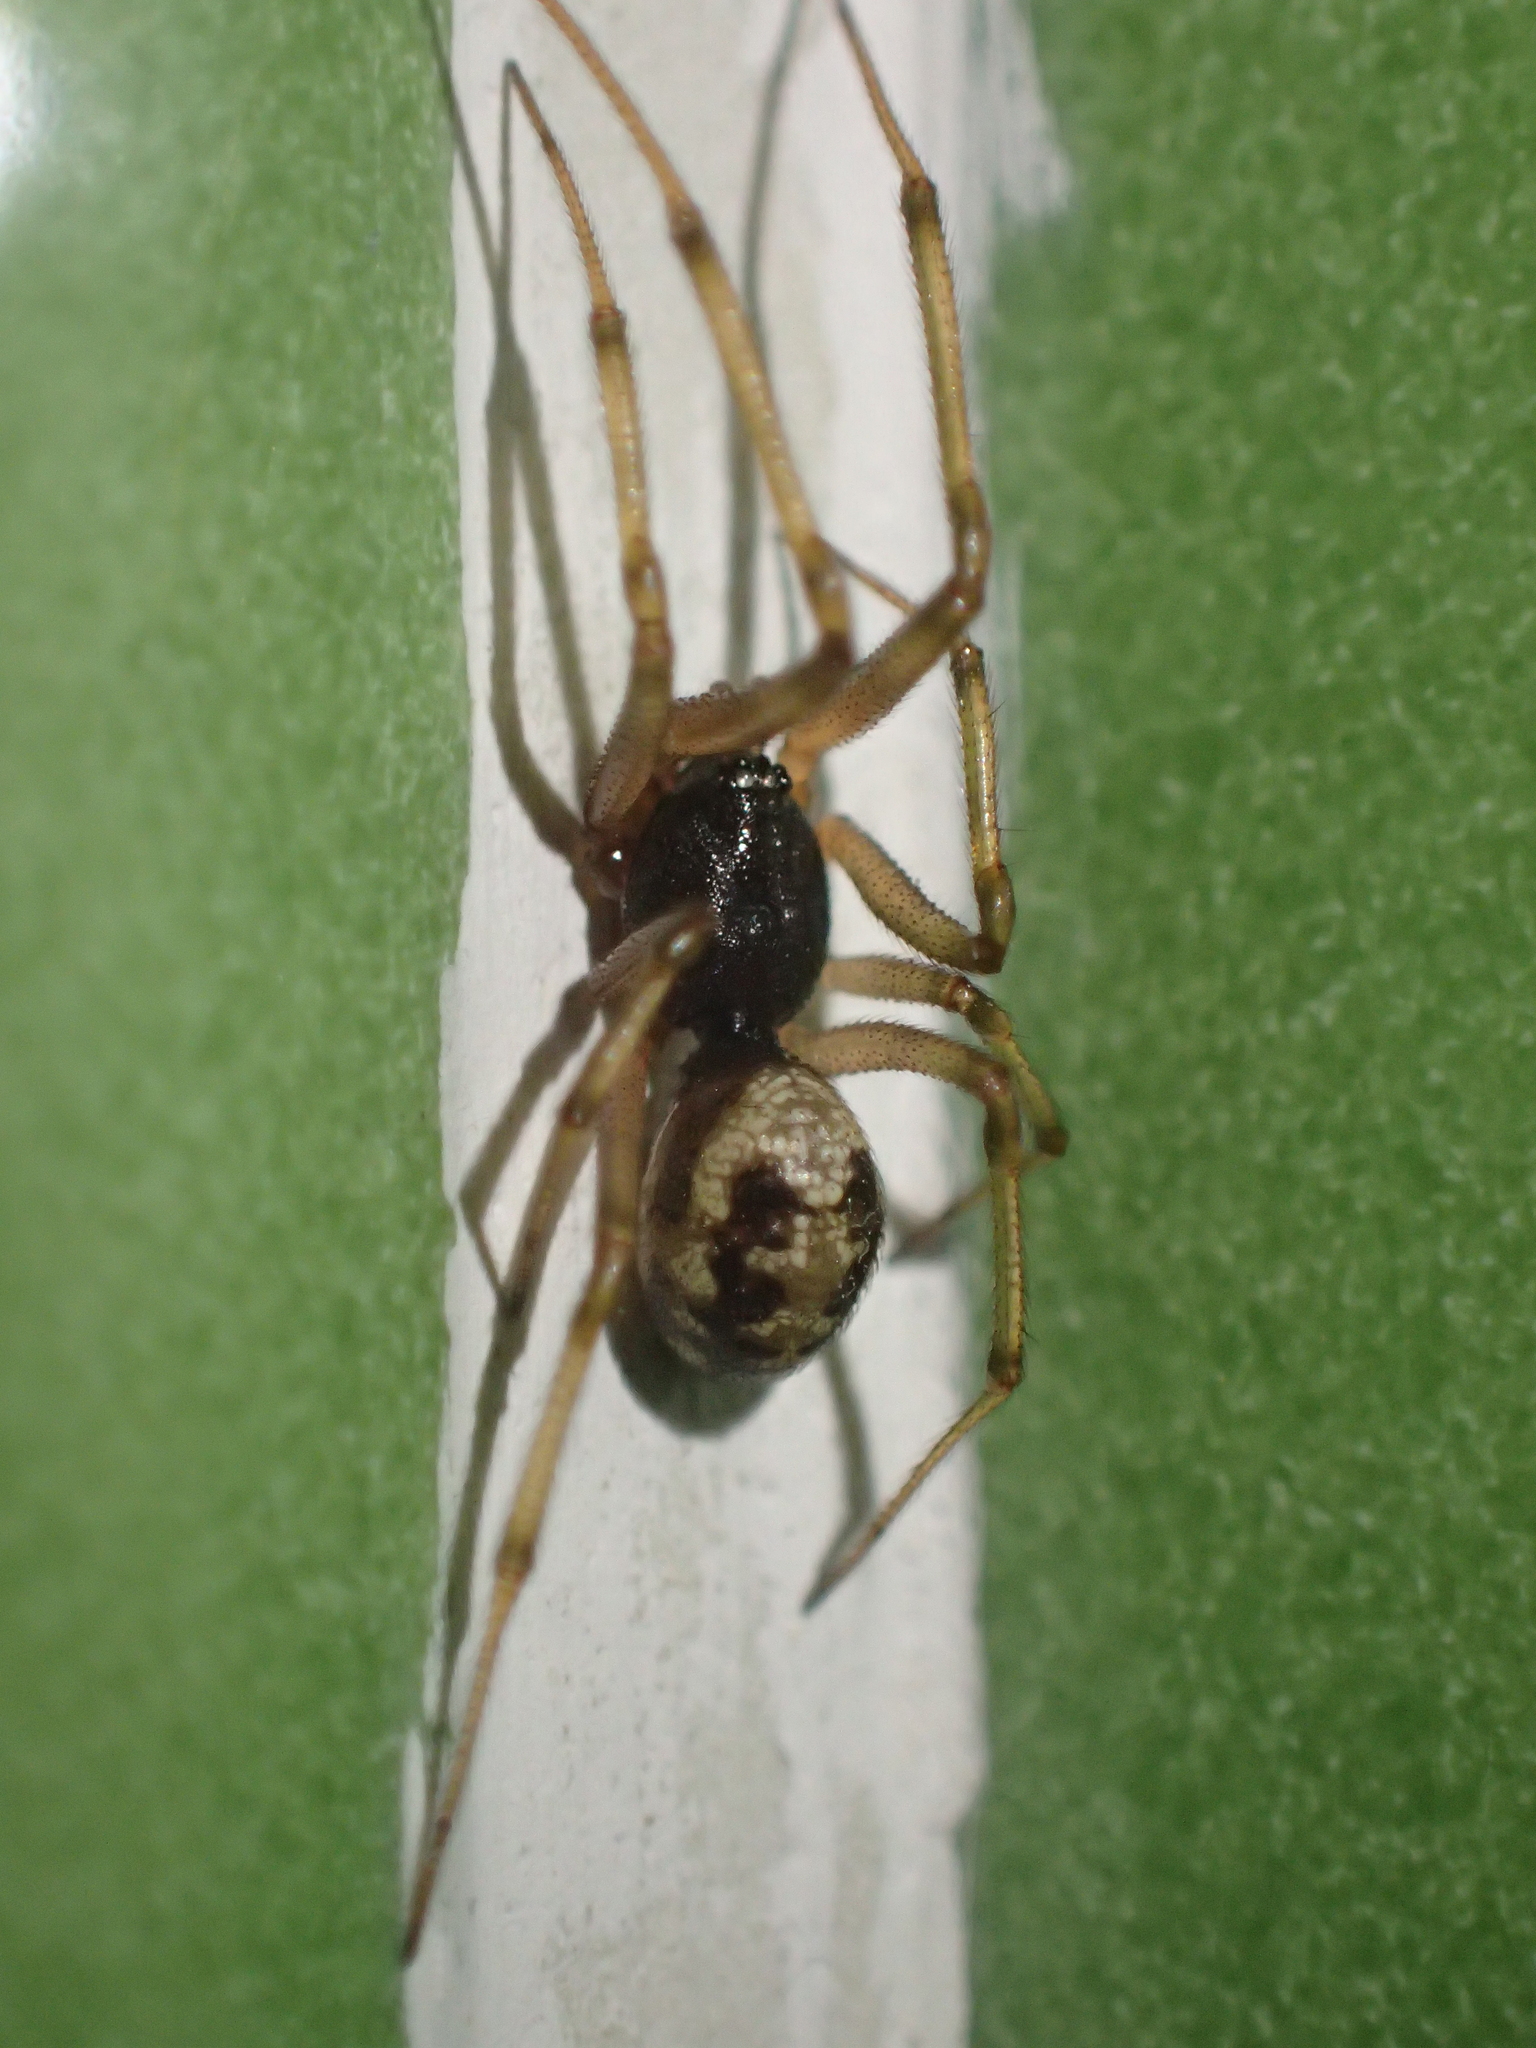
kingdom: Animalia
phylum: Arthropoda
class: Arachnida
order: Araneae
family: Theridiidae
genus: Steatoda
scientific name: Steatoda triangulosa
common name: Triangulate bud spider
